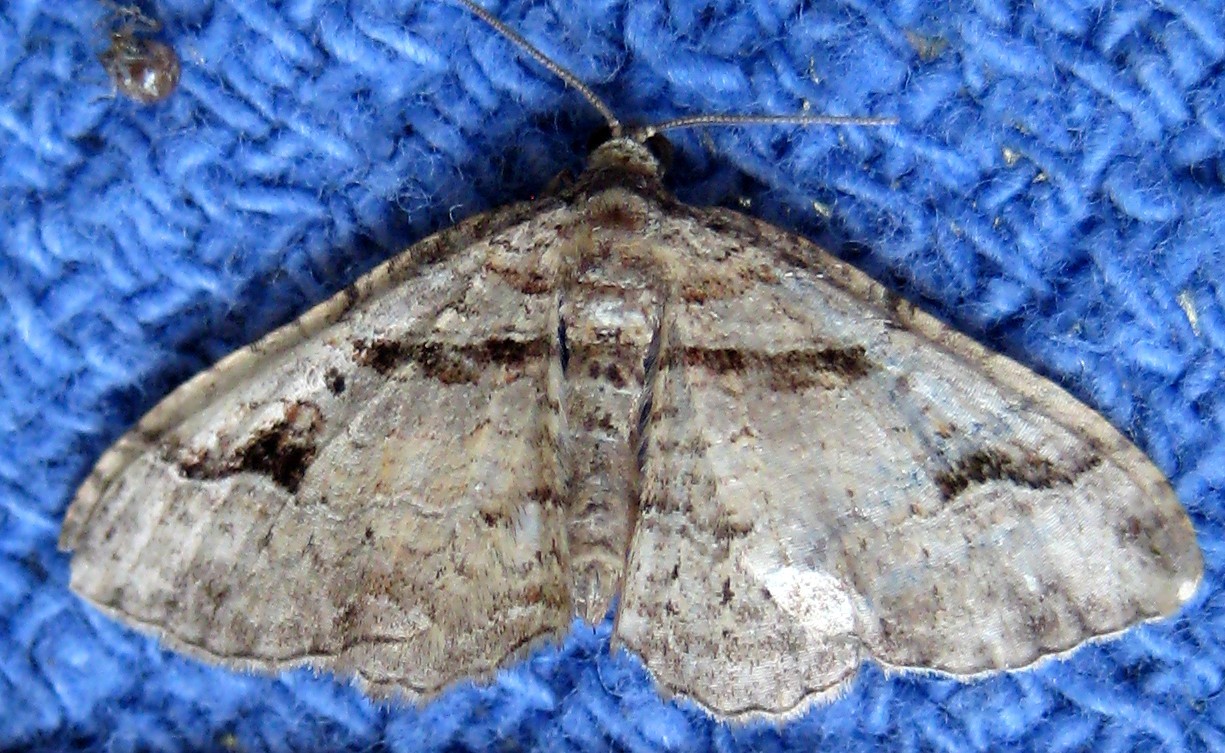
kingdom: Animalia
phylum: Arthropoda
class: Insecta
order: Lepidoptera
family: Geometridae
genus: Costaconvexa
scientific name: Costaconvexa centrostrigaria
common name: Bent-line carpet
